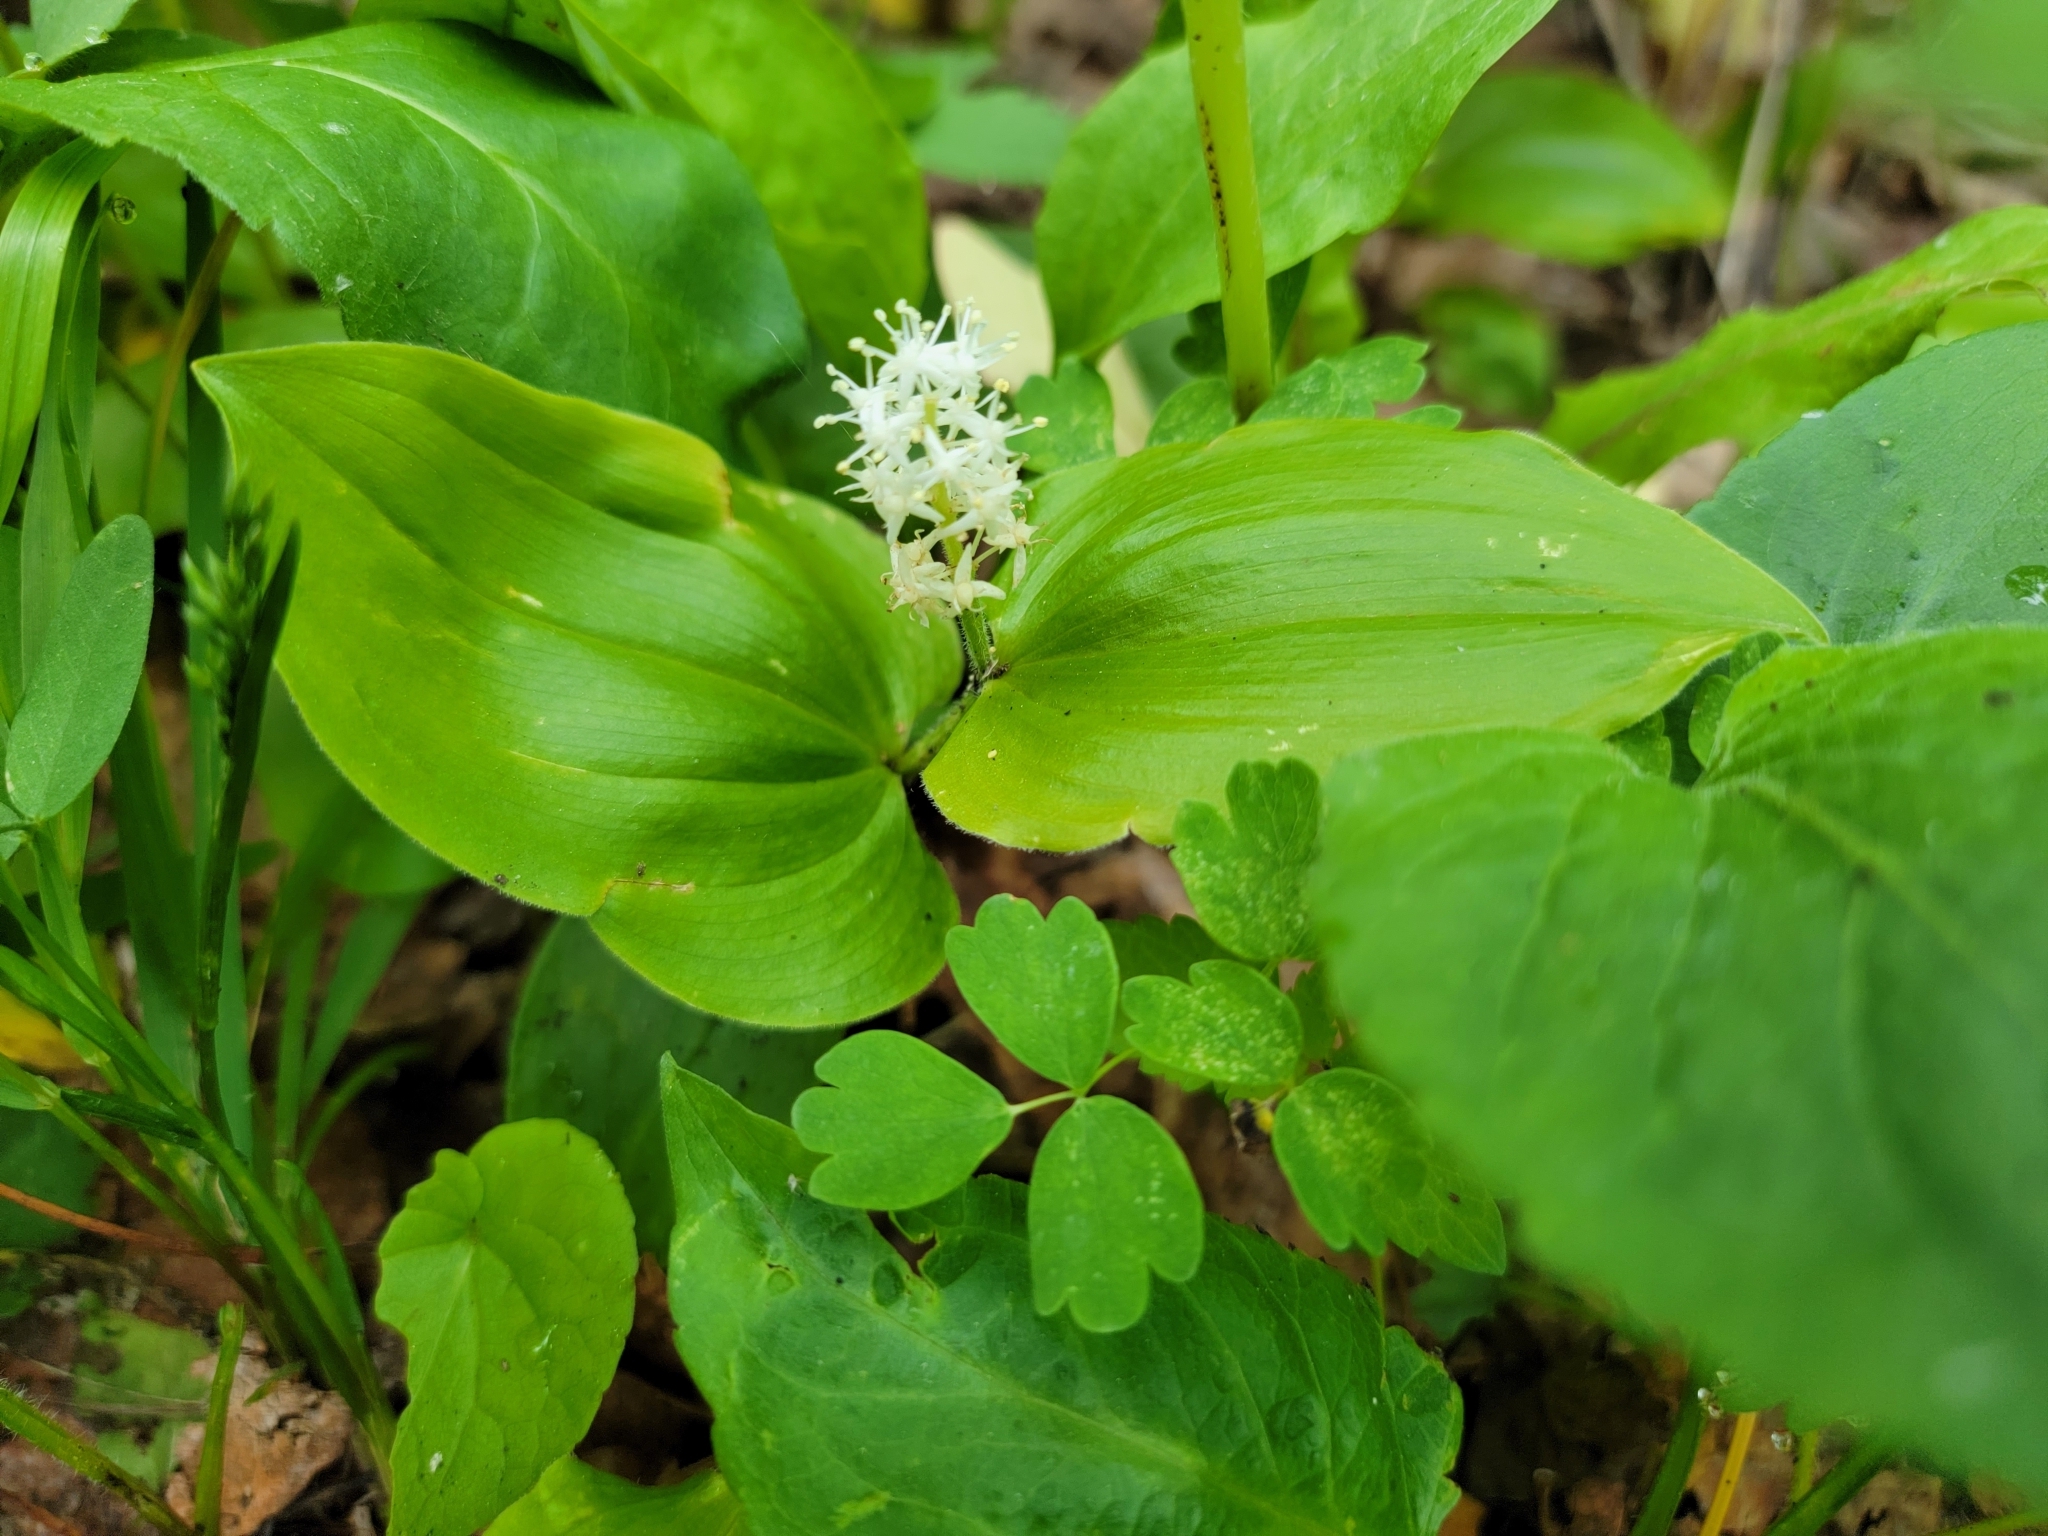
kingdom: Plantae
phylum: Tracheophyta
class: Liliopsida
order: Asparagales
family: Asparagaceae
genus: Maianthemum
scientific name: Maianthemum canadense
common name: False lily-of-the-valley
